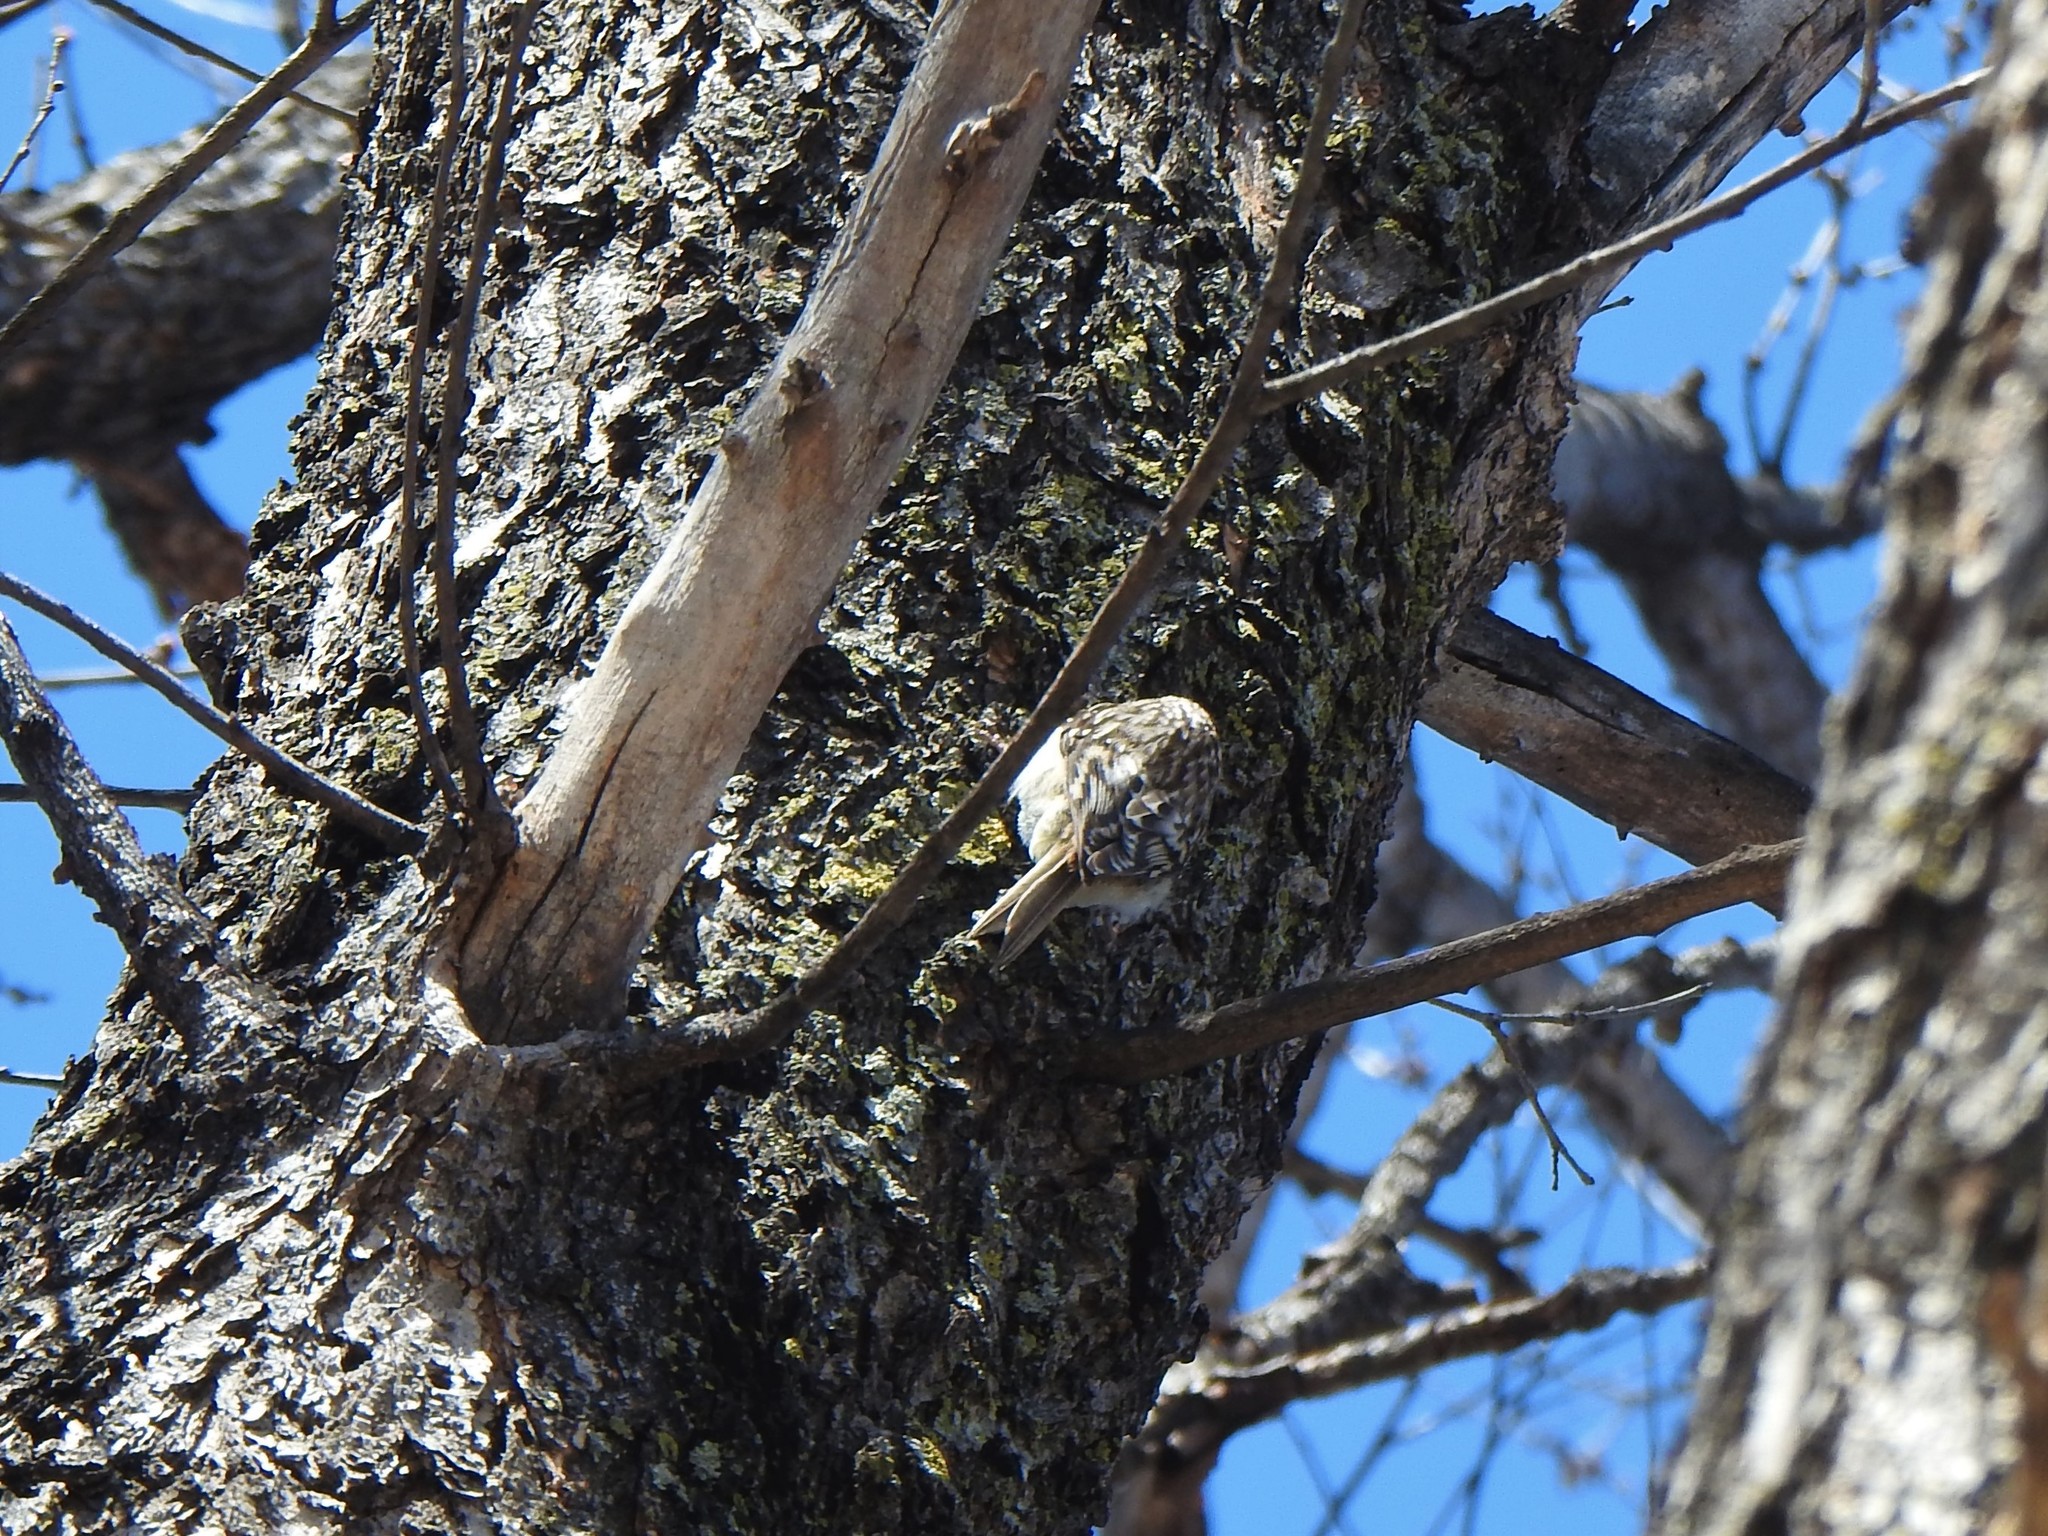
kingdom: Animalia
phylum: Chordata
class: Aves
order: Passeriformes
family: Certhiidae
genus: Certhia
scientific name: Certhia americana
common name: Brown creeper
